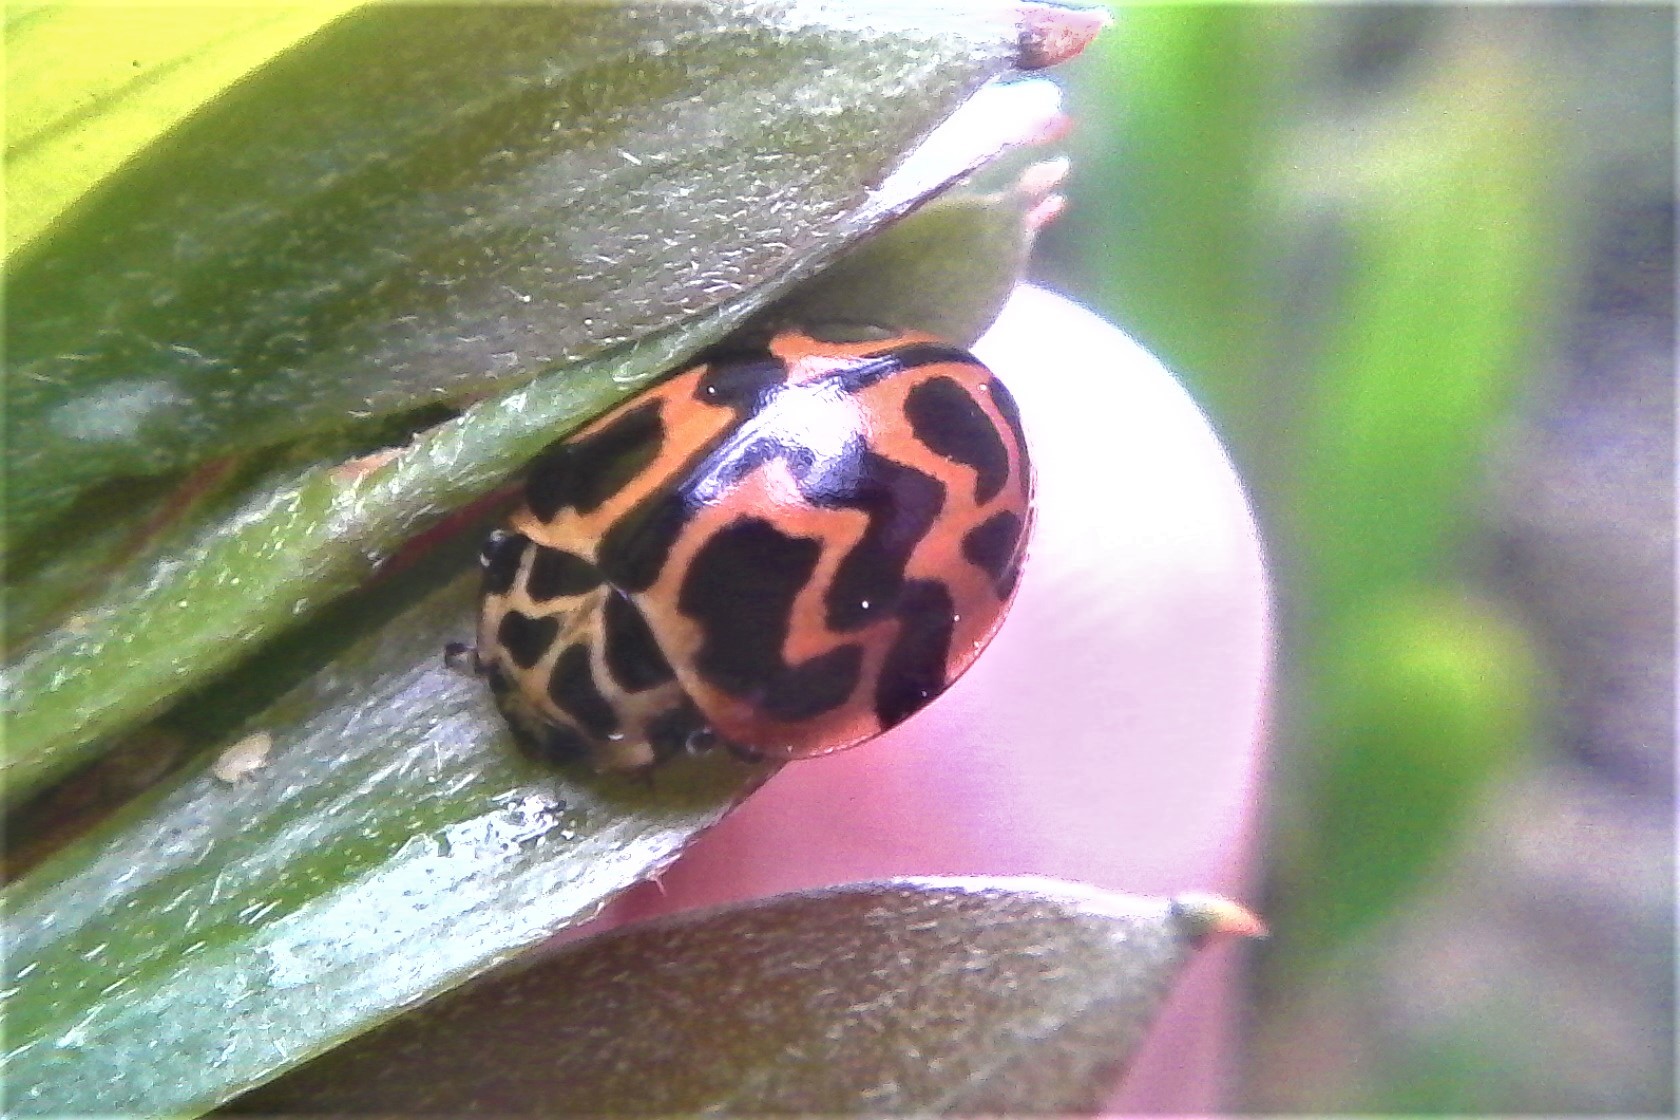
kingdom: Animalia
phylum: Arthropoda
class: Insecta
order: Coleoptera
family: Coccinellidae
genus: Cleobora
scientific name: Cleobora
